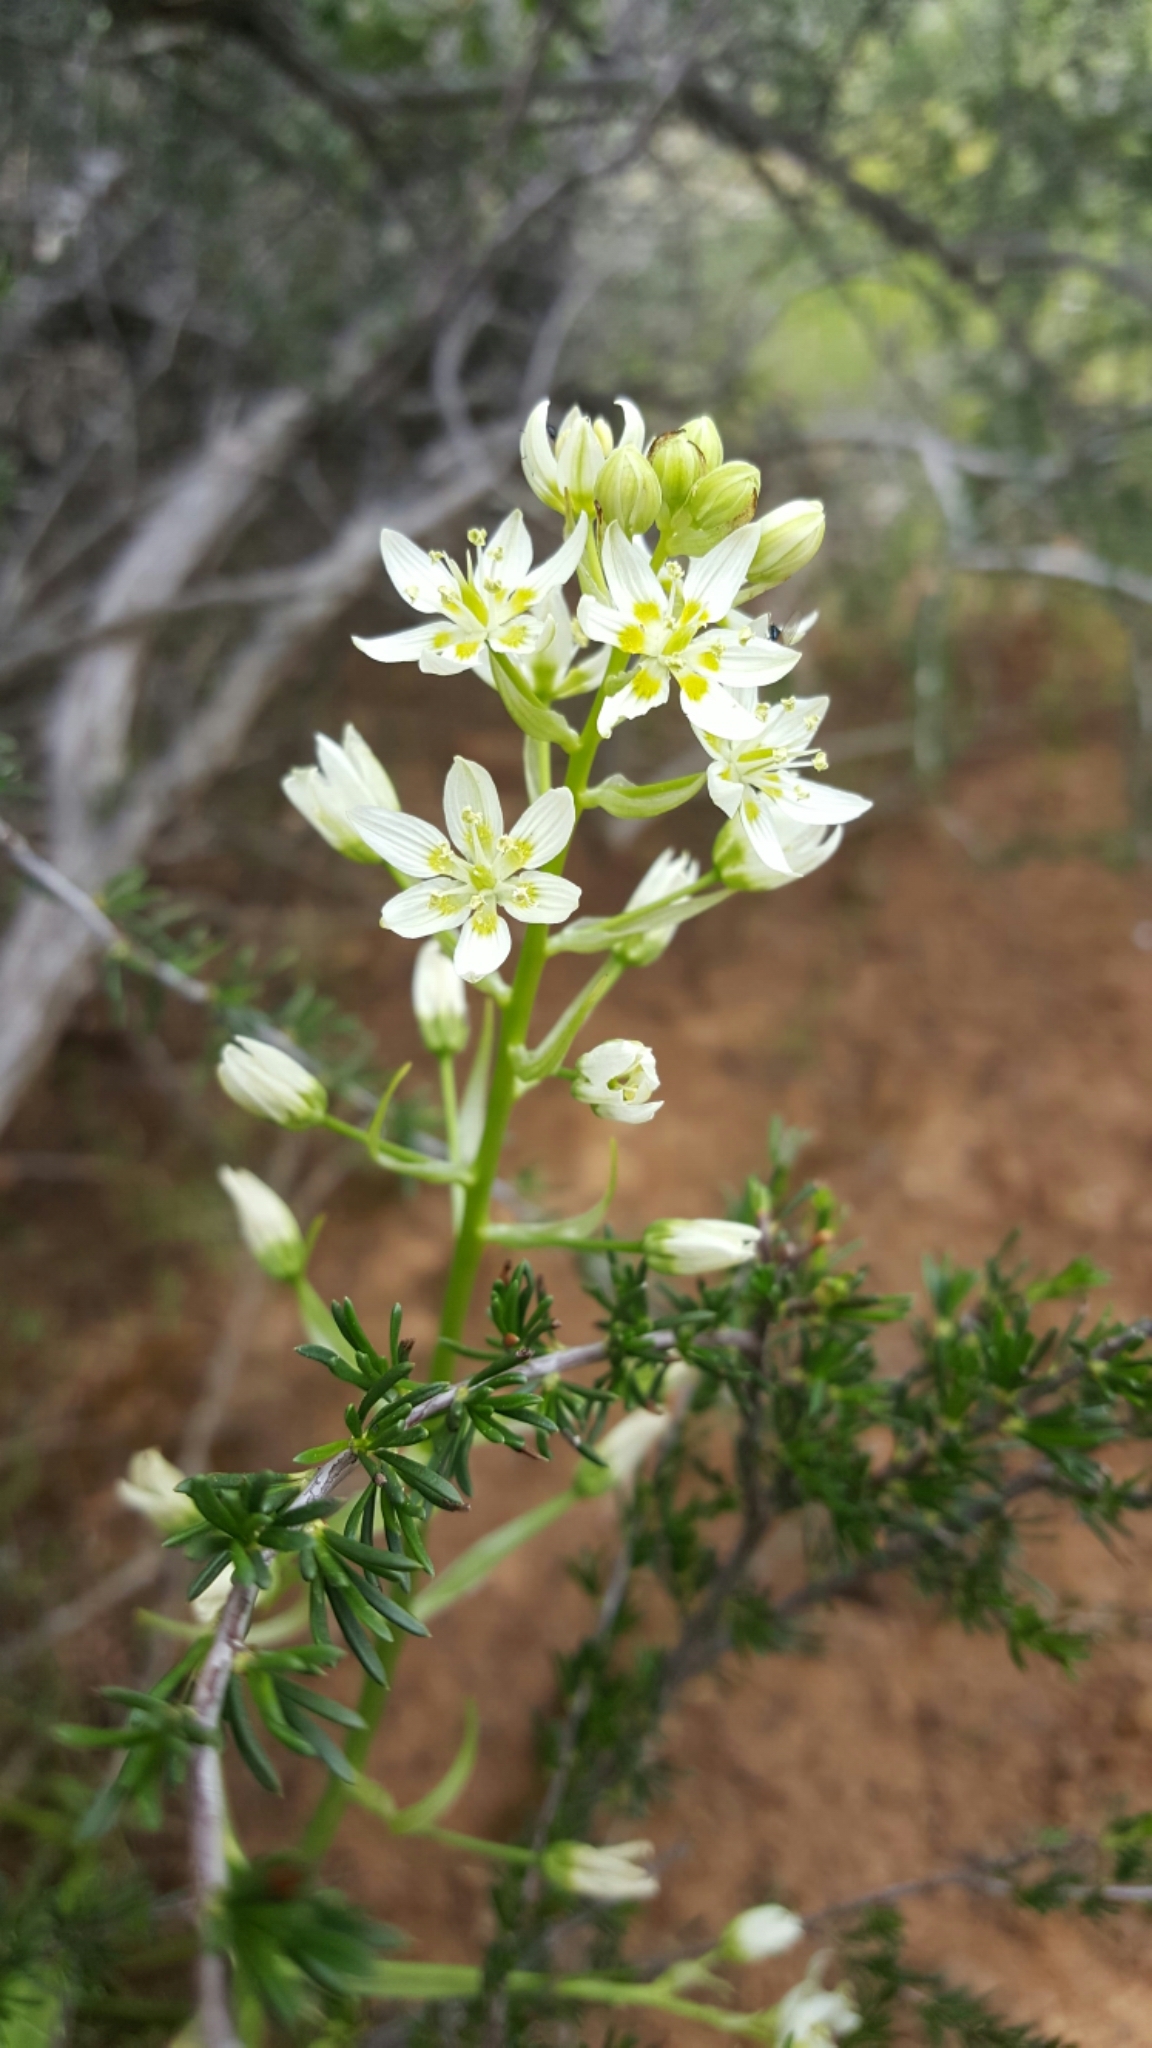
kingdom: Plantae
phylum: Tracheophyta
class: Liliopsida
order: Liliales
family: Melanthiaceae
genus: Toxicoscordion
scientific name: Toxicoscordion fremontii
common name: Fremont's death camas
